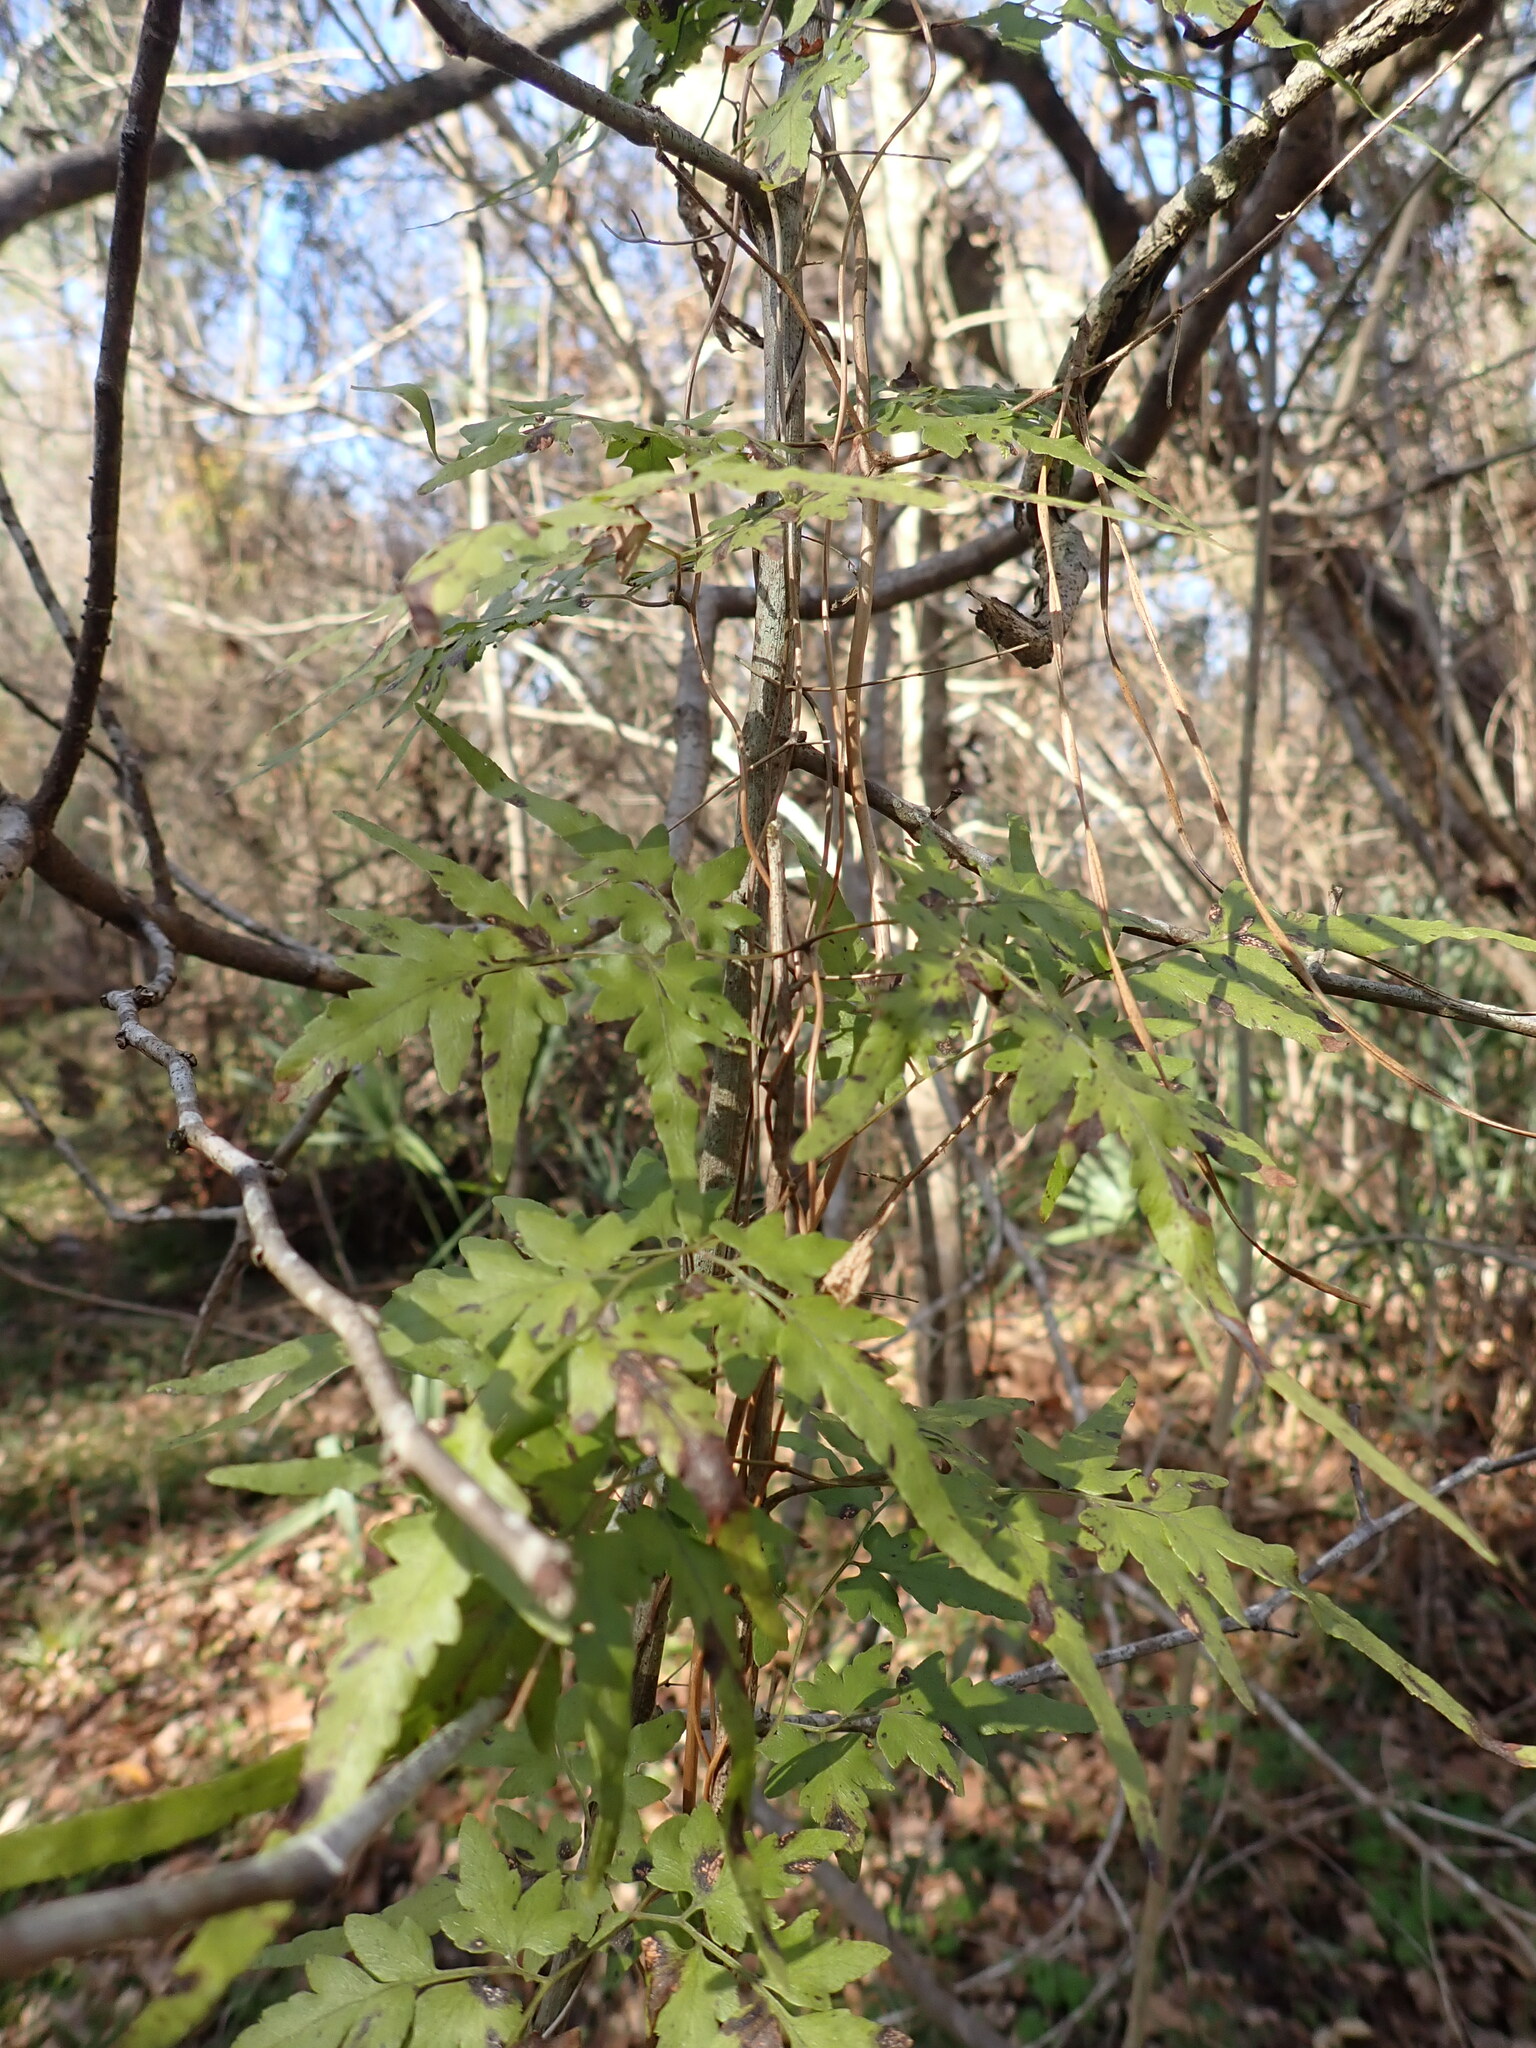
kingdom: Plantae
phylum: Tracheophyta
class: Polypodiopsida
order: Schizaeales
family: Lygodiaceae
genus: Lygodium
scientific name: Lygodium japonicum
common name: Japanese climbing fern
